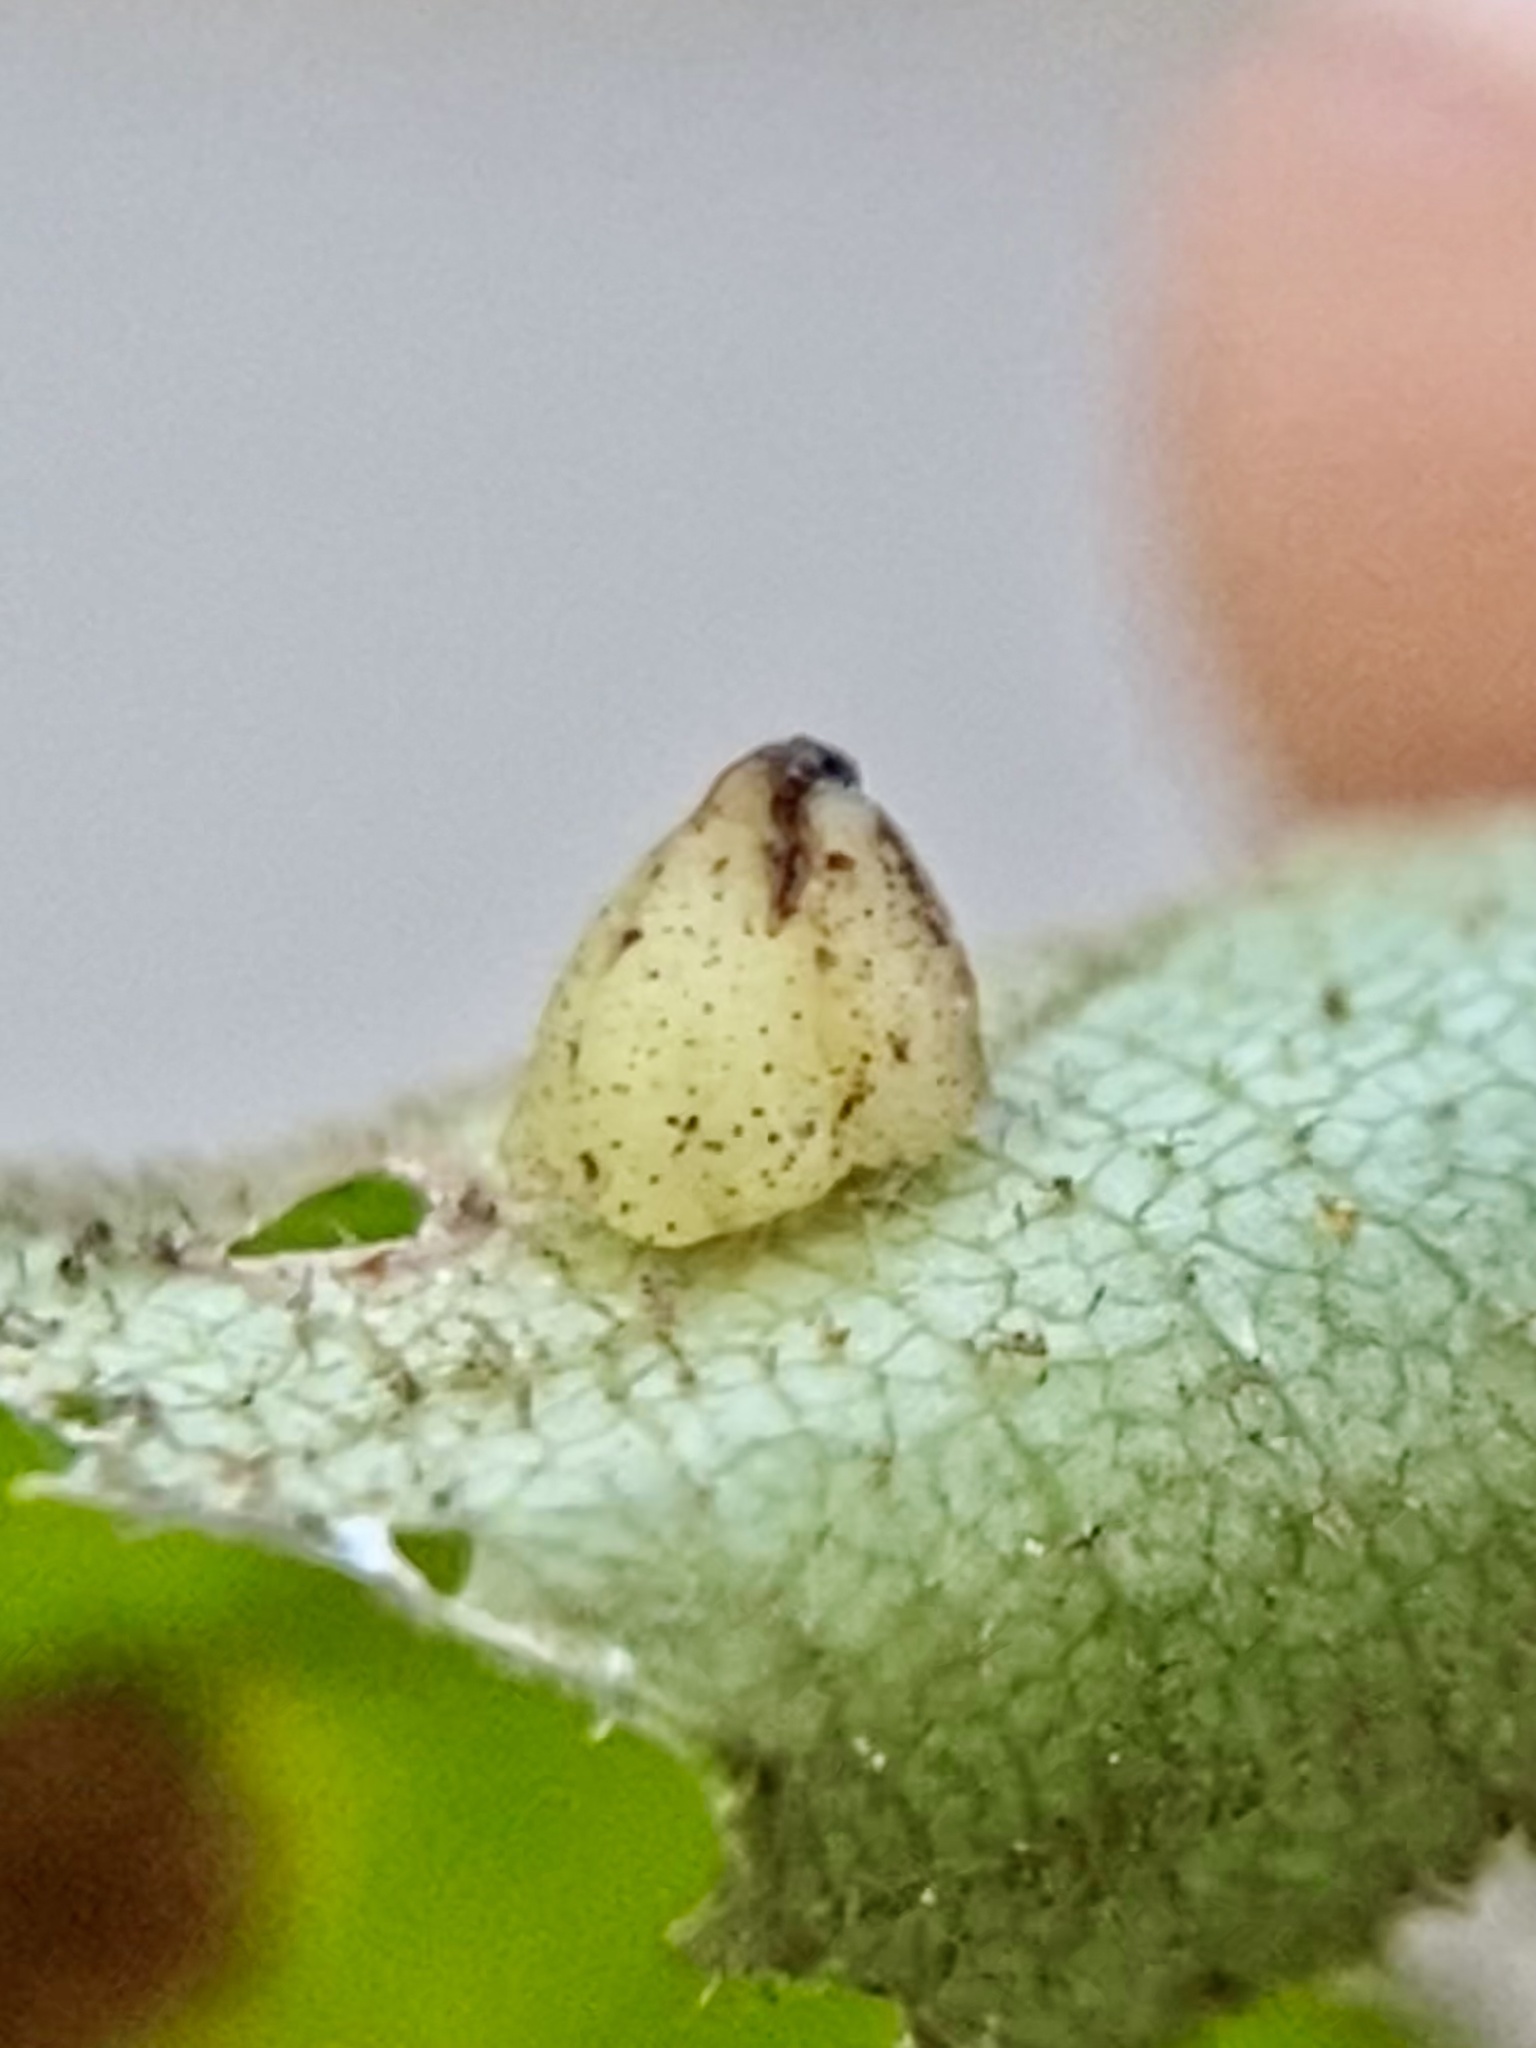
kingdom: Animalia
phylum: Arthropoda
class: Insecta
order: Diptera
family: Cecidomyiidae
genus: Caryomyia
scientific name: Caryomyia sanguinolenta
